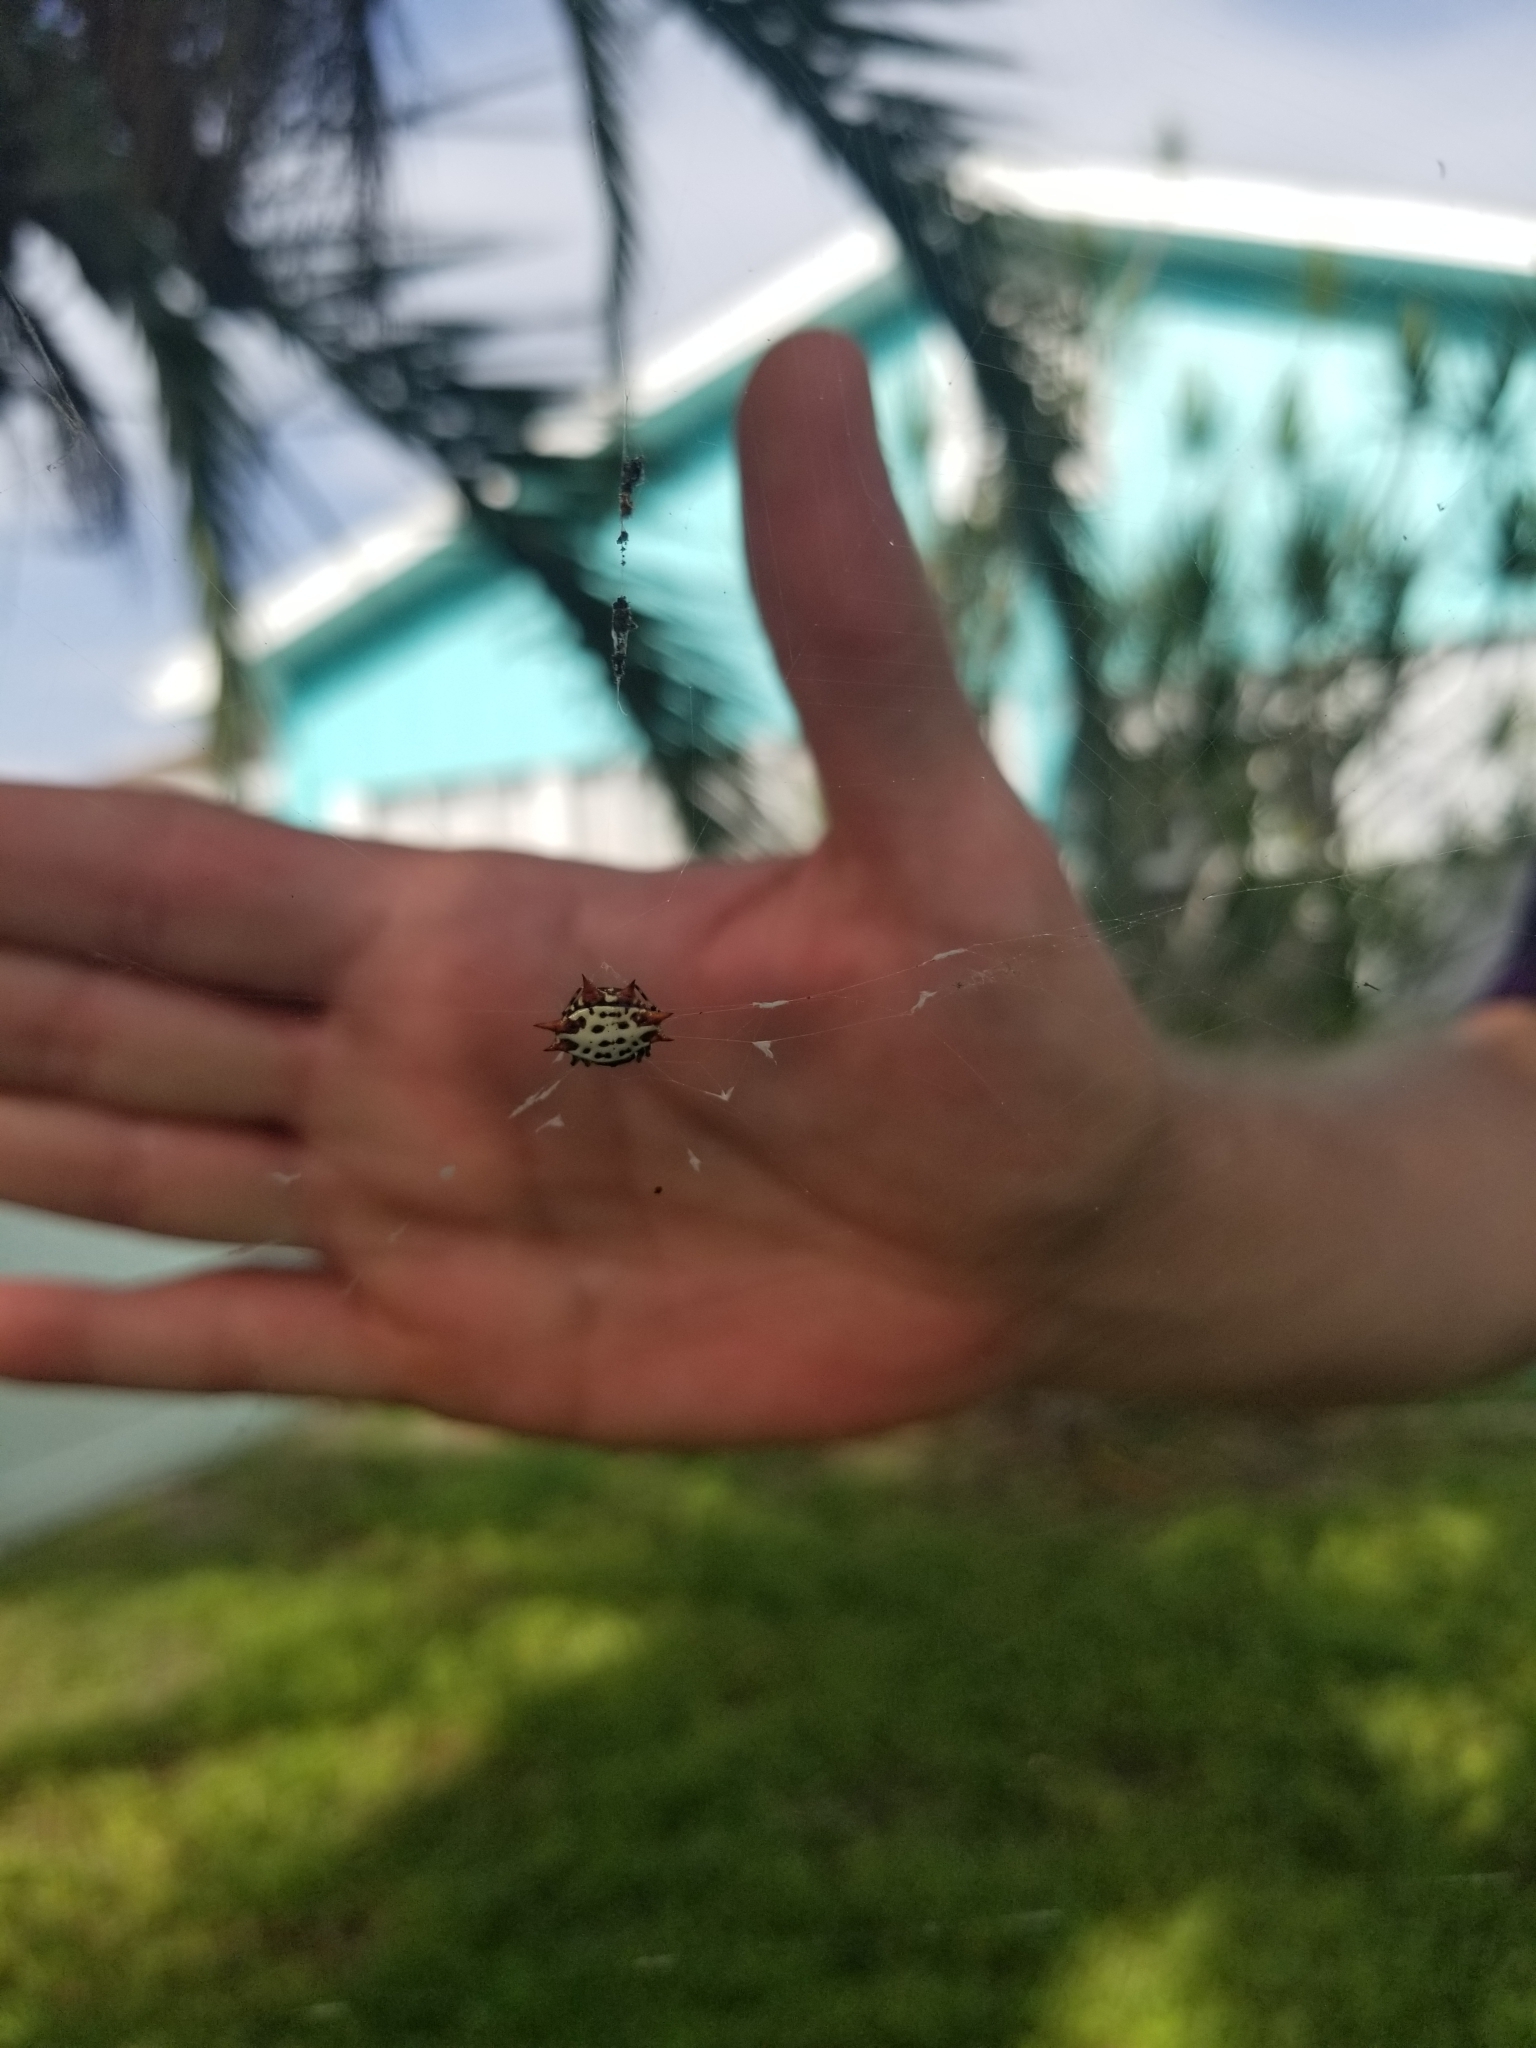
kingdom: Animalia
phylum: Arthropoda
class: Arachnida
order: Araneae
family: Araneidae
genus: Gasteracantha
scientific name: Gasteracantha cancriformis
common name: Orb weavers
